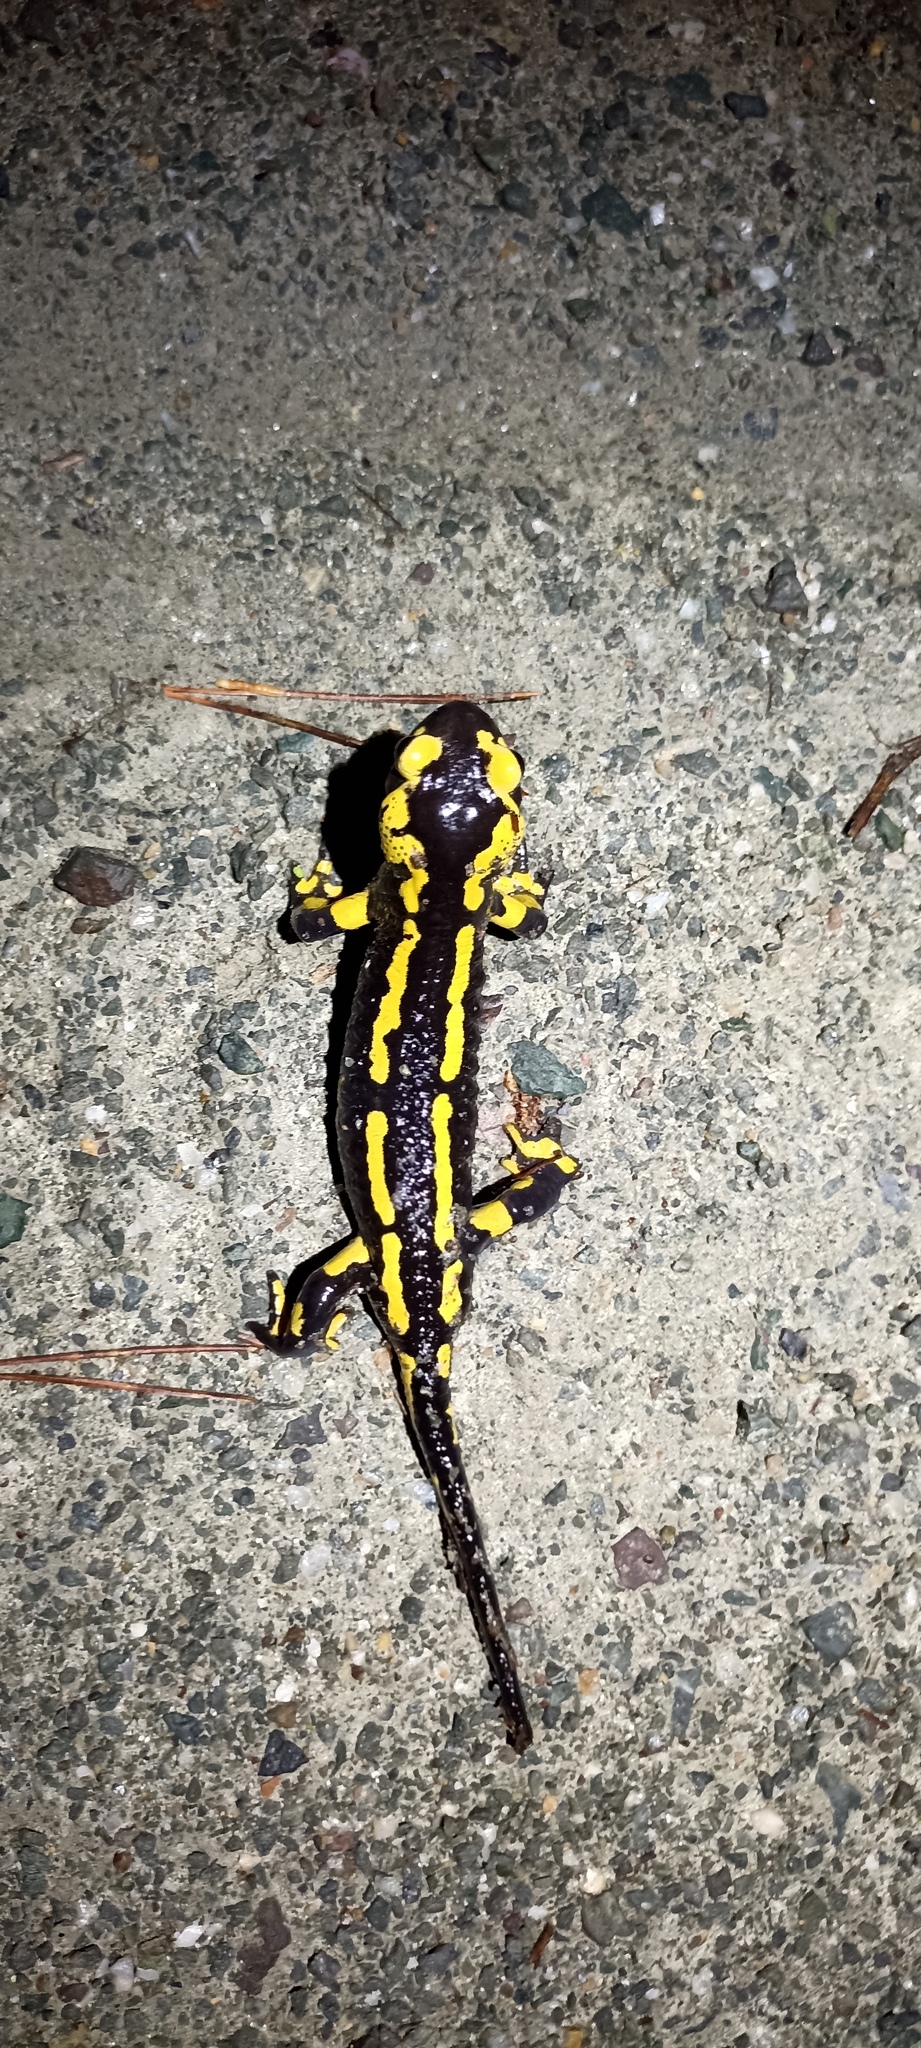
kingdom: Animalia
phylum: Chordata
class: Amphibia
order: Caudata
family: Salamandridae
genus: Salamandra
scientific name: Salamandra salamandra
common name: Fire salamander
